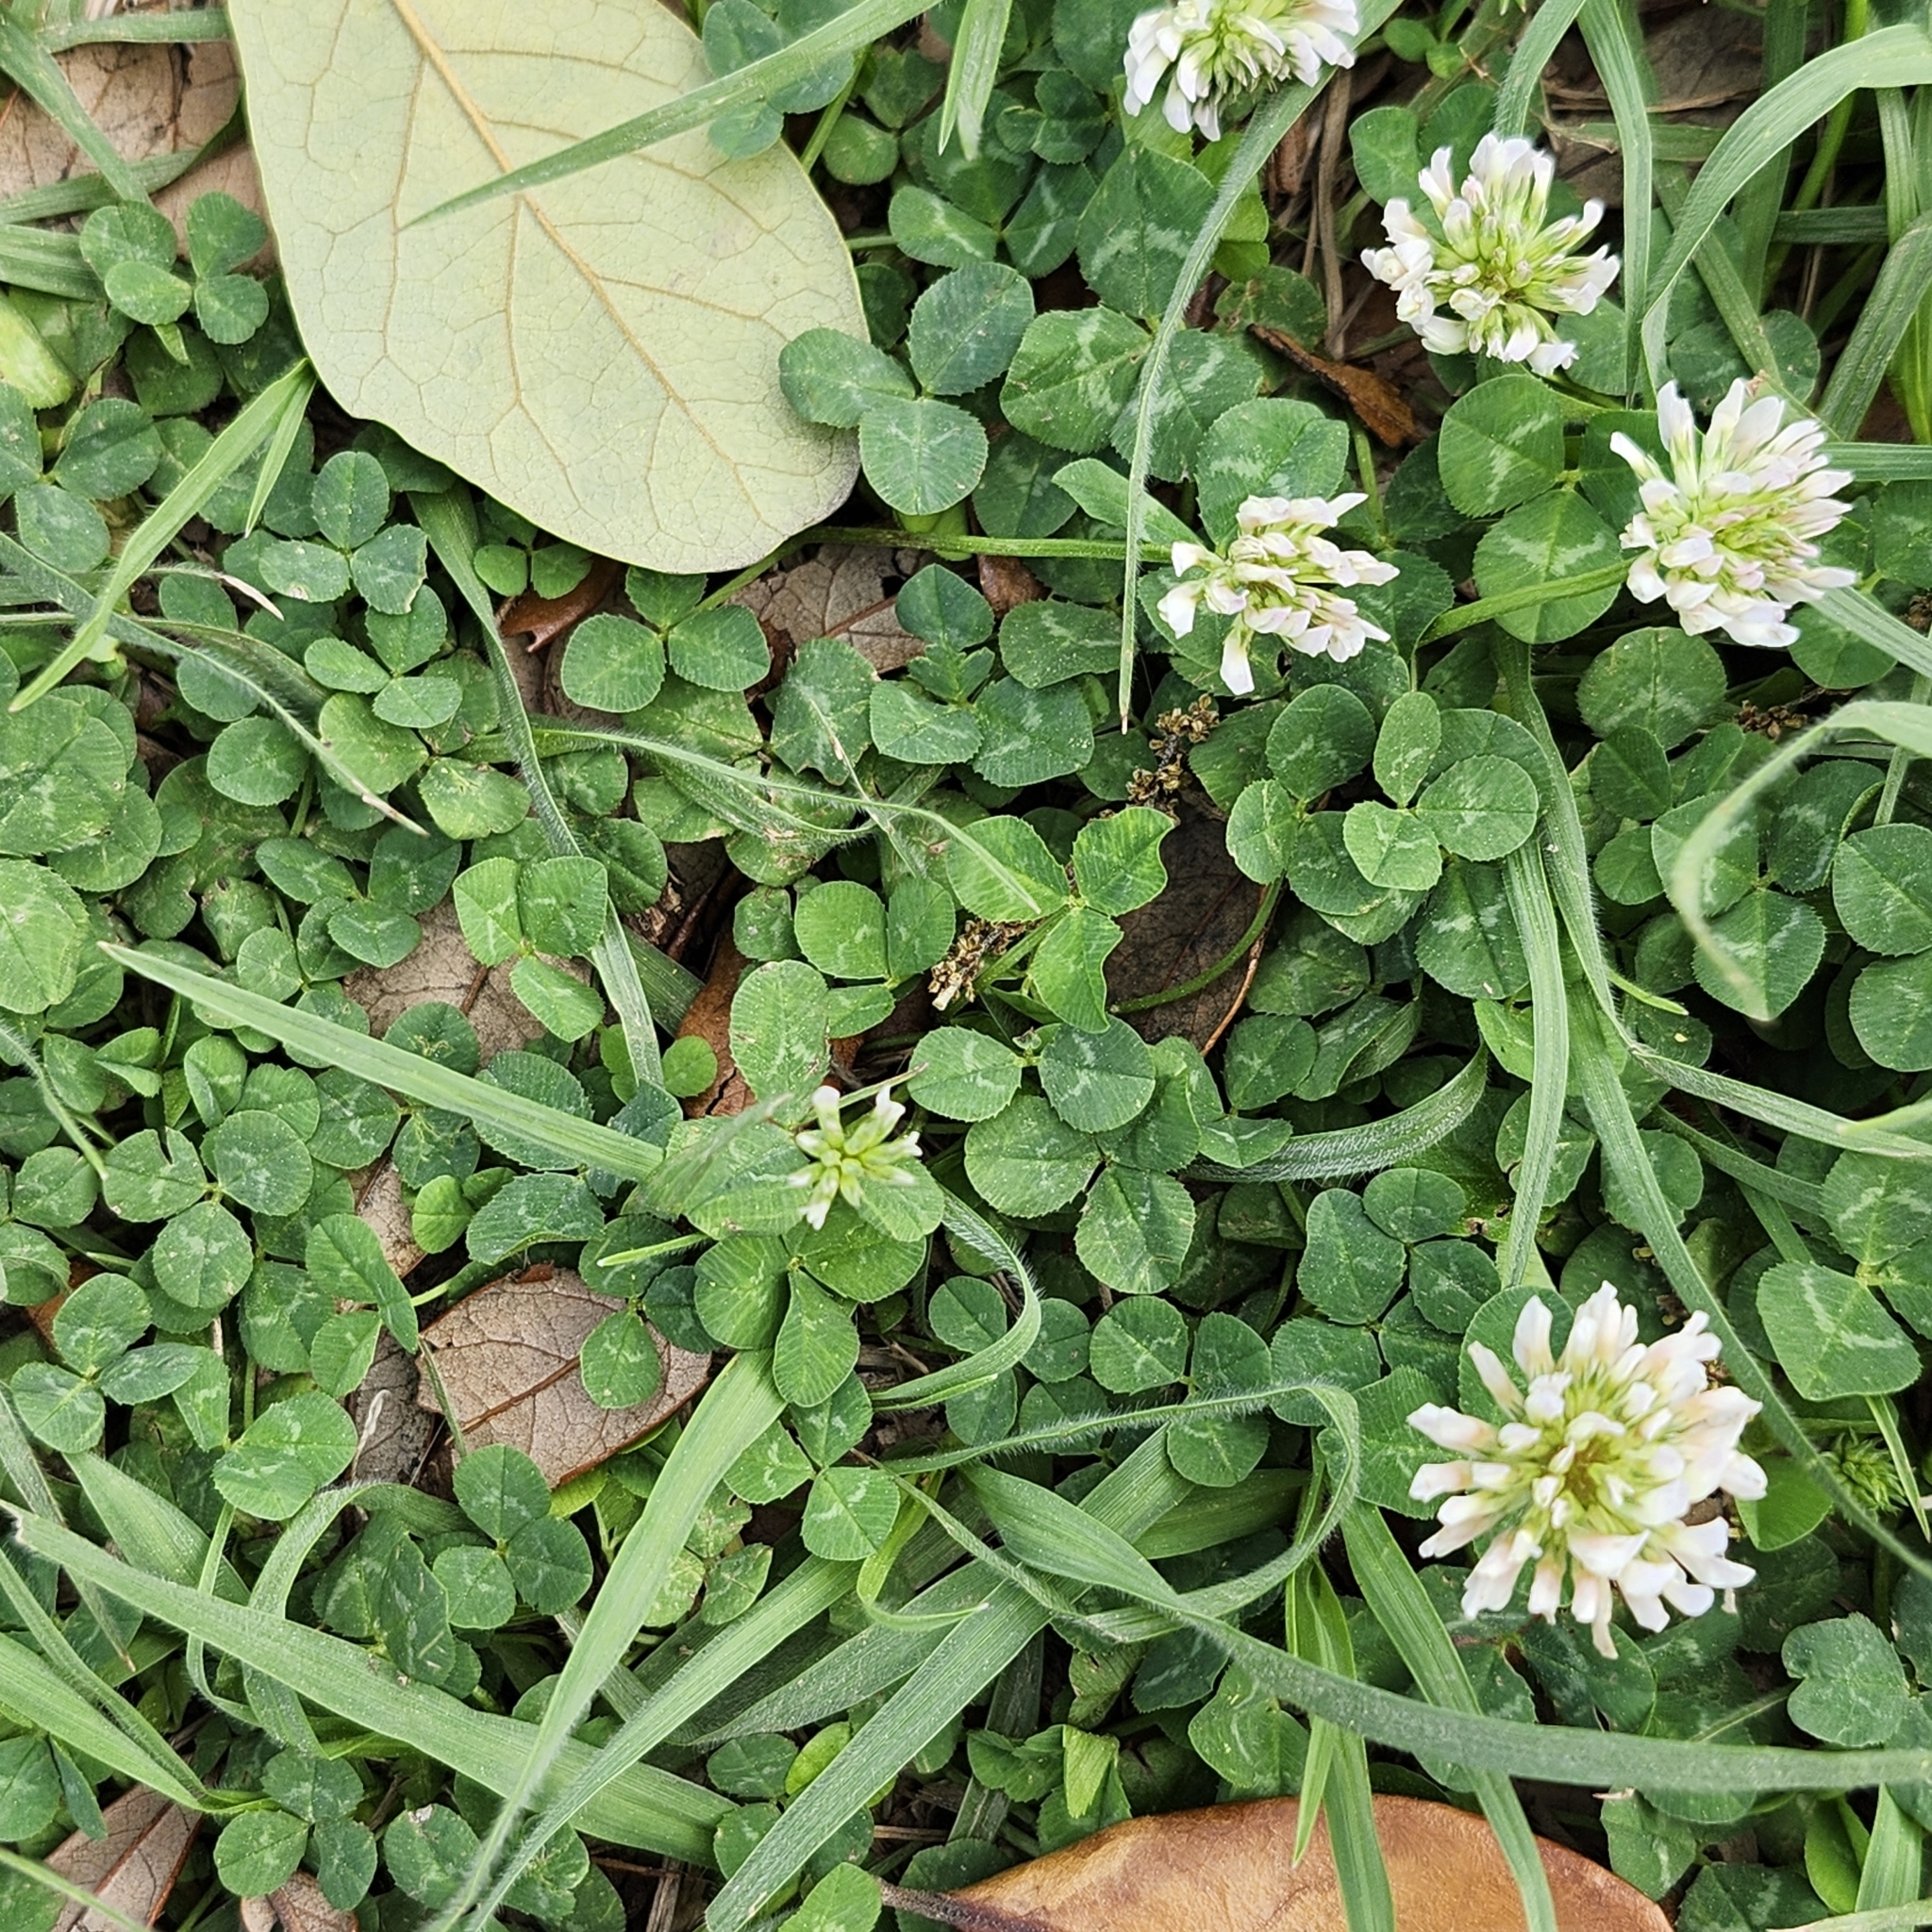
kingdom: Plantae
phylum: Tracheophyta
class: Magnoliopsida
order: Fabales
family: Fabaceae
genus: Trifolium
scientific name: Trifolium repens
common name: White clover
